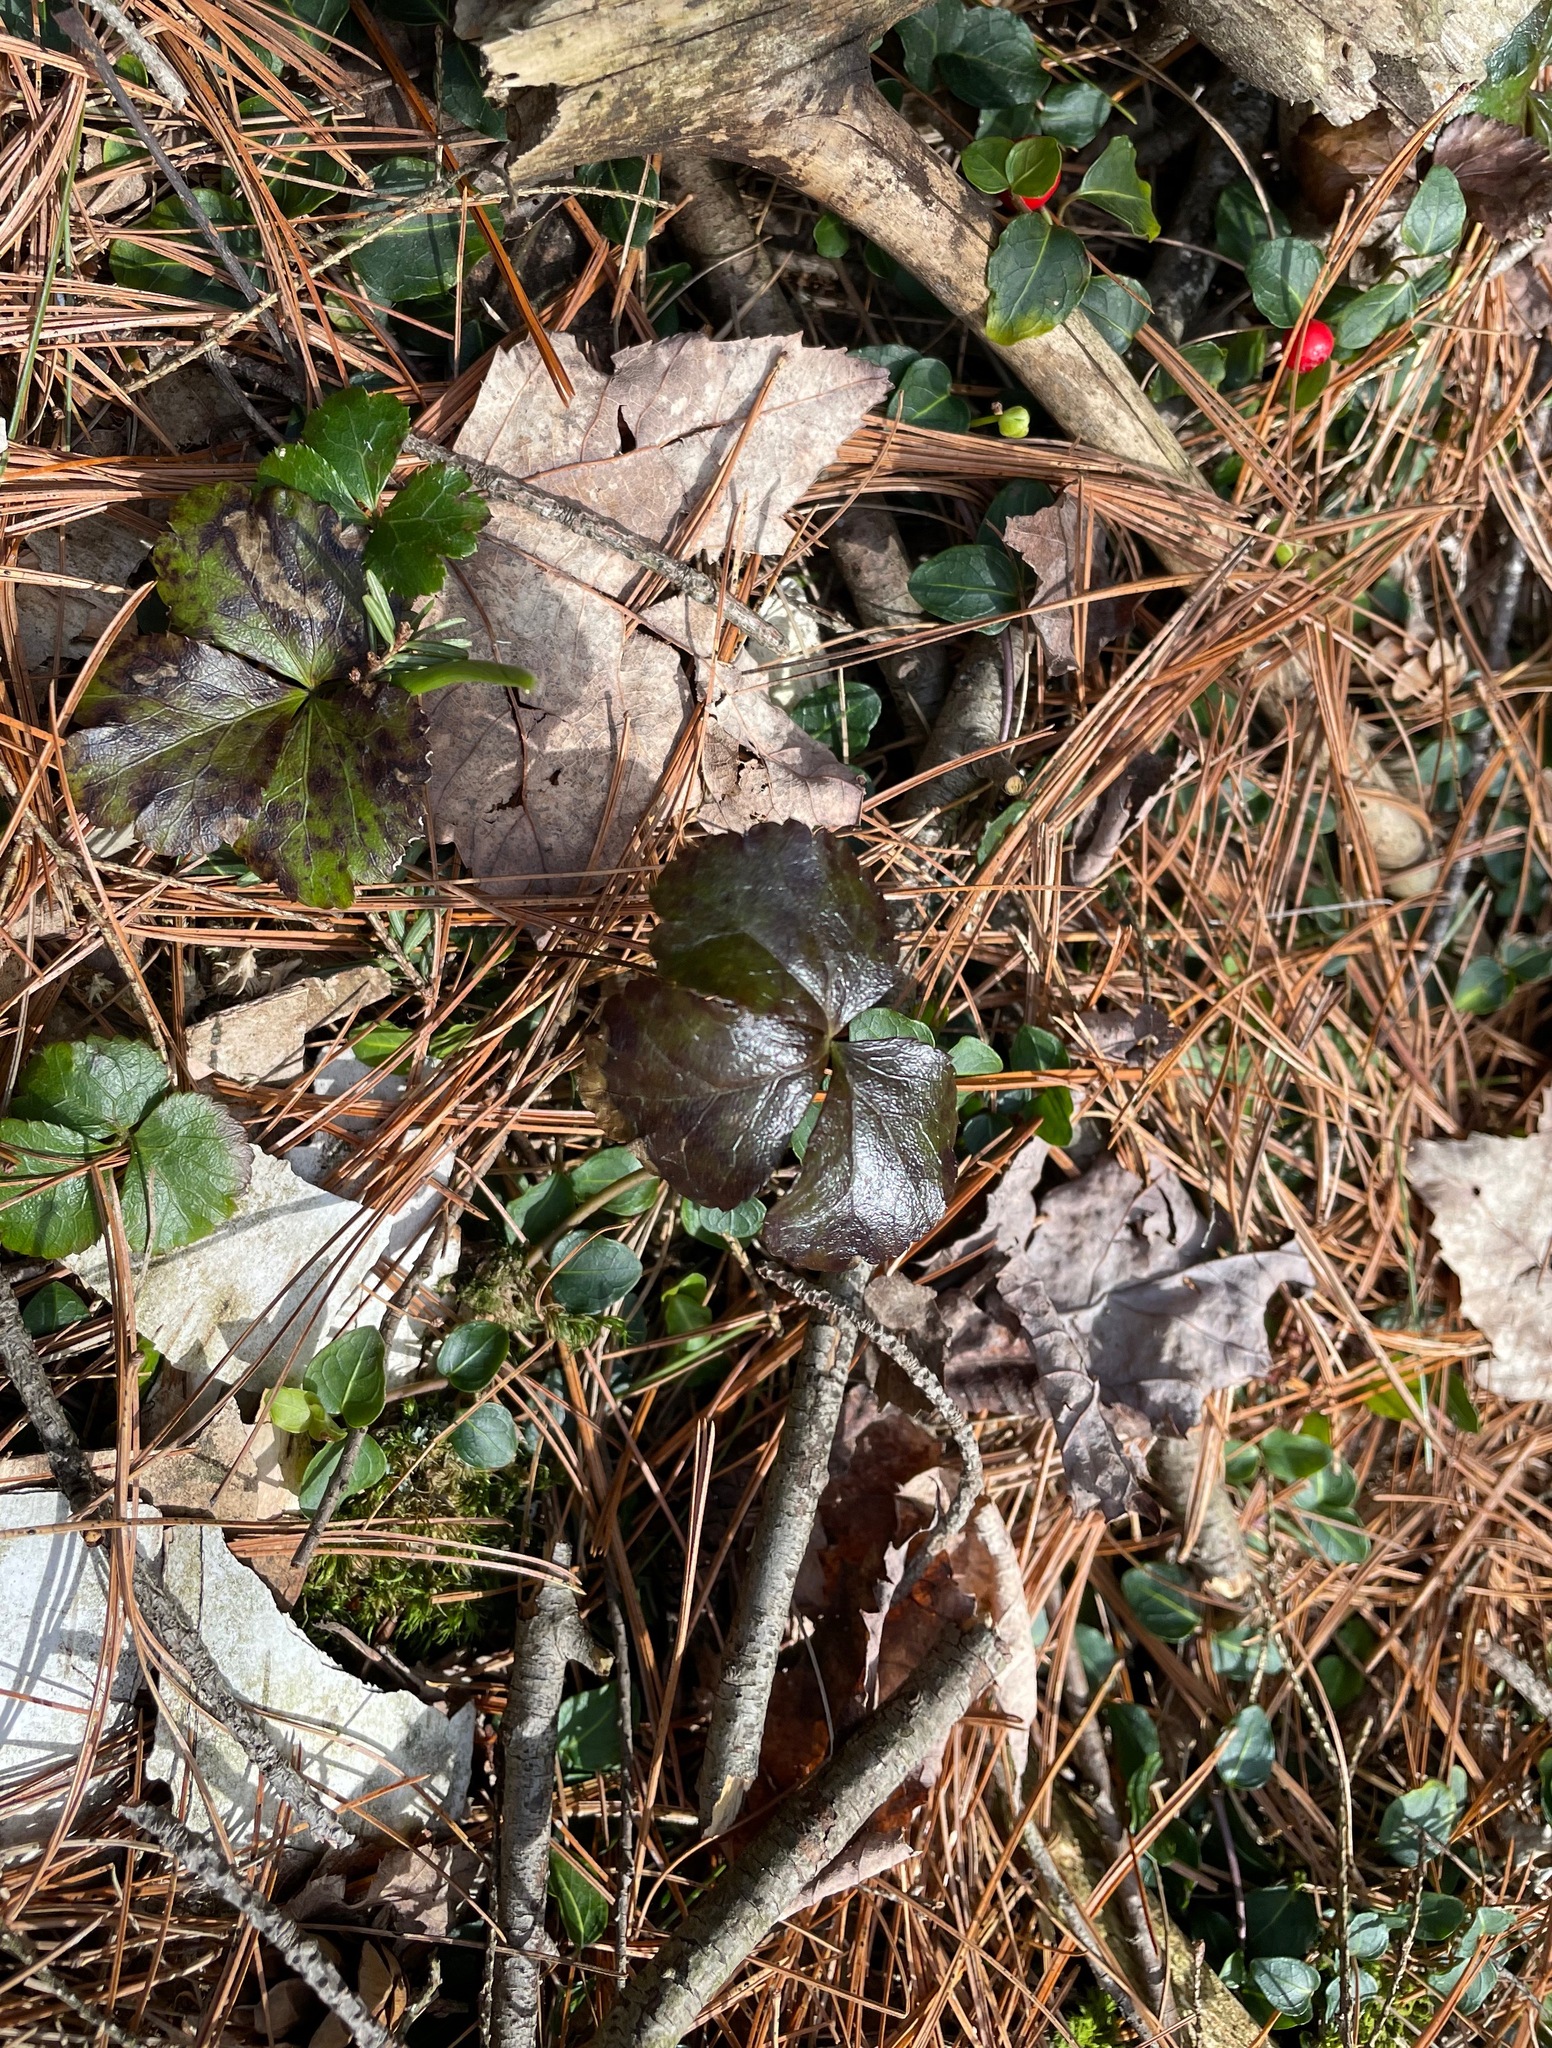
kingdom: Plantae
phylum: Tracheophyta
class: Magnoliopsida
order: Ranunculales
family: Ranunculaceae
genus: Coptis
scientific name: Coptis trifolia
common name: Canker-root
